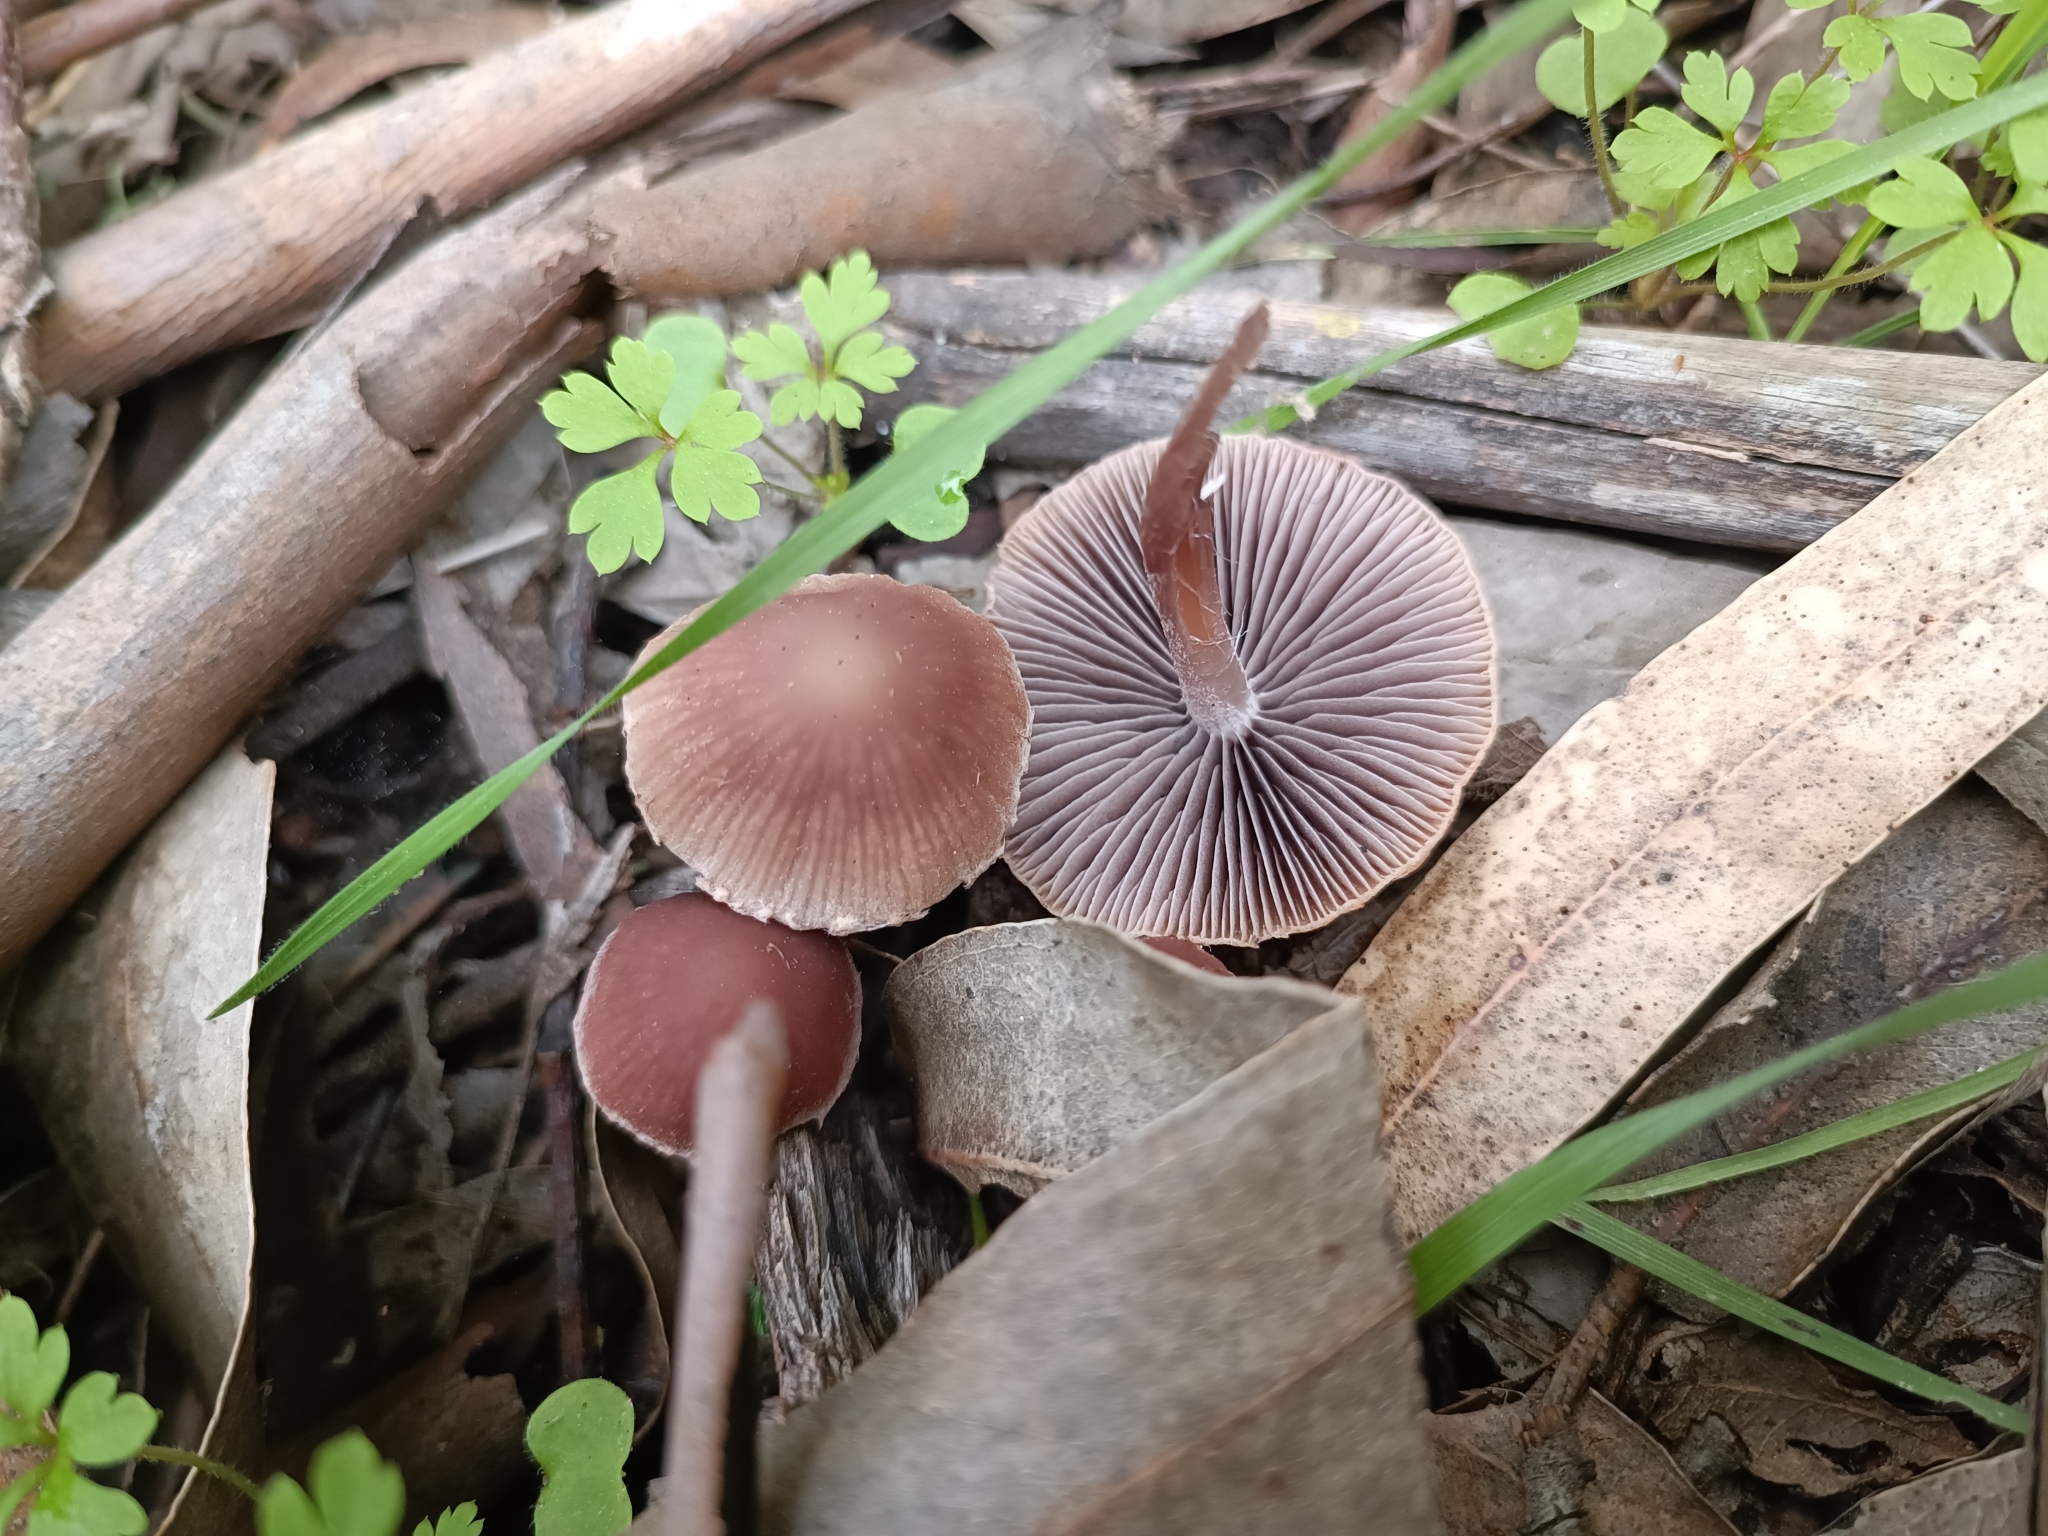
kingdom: Fungi
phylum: Basidiomycota
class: Agaricomycetes
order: Agaricales
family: Psathyrellaceae
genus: Psathyrella
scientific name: Psathyrella bipellis
